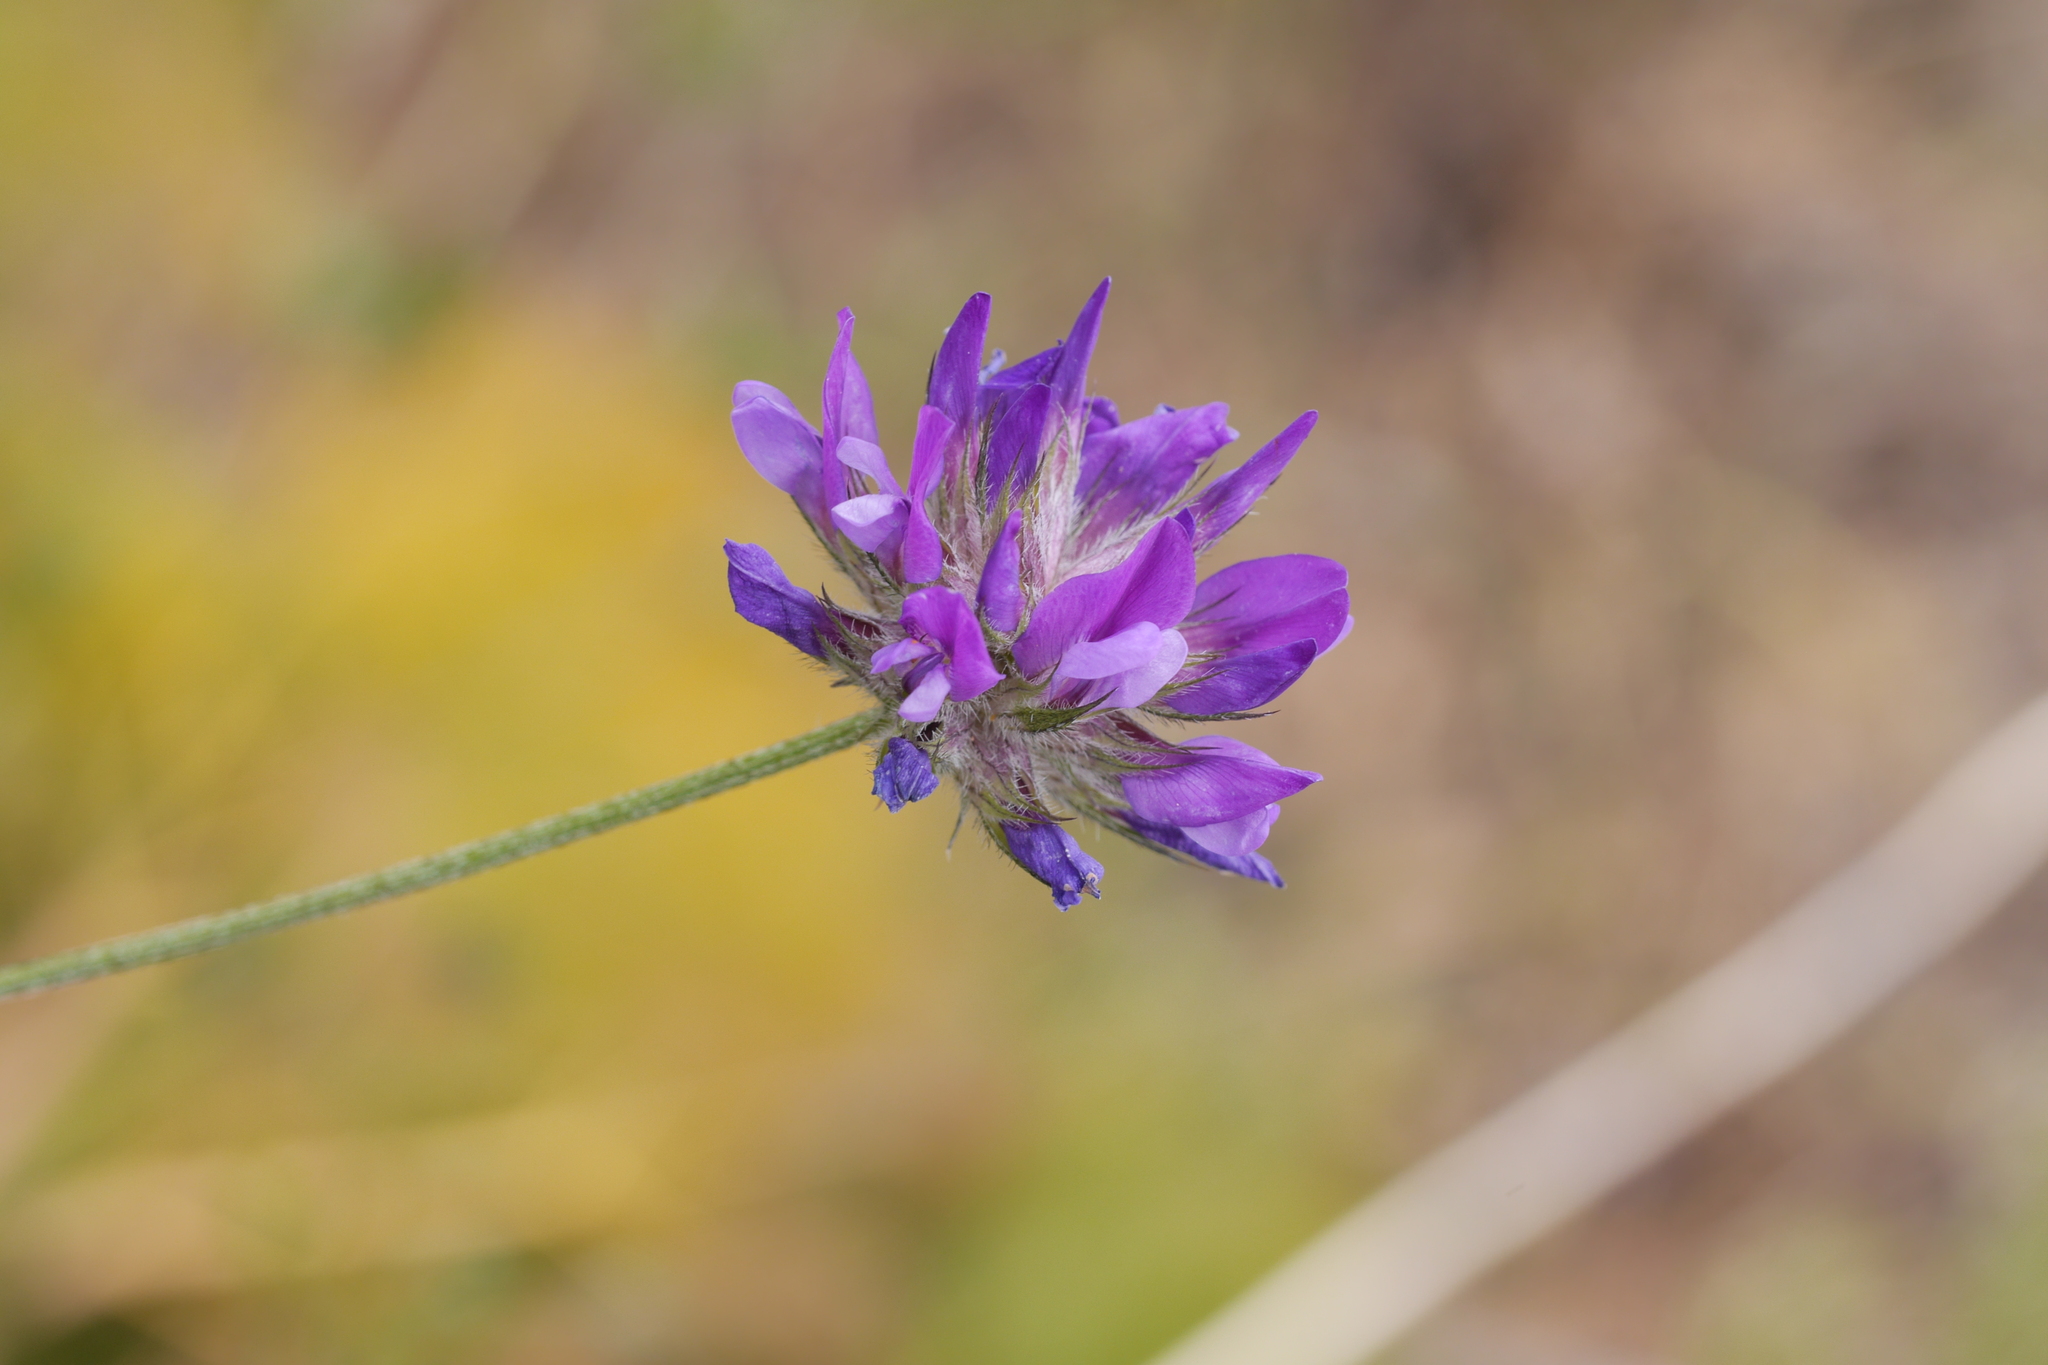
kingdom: Plantae
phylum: Tracheophyta
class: Magnoliopsida
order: Fabales
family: Fabaceae
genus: Bituminaria
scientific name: Bituminaria bituminosa
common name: Arabian pea
